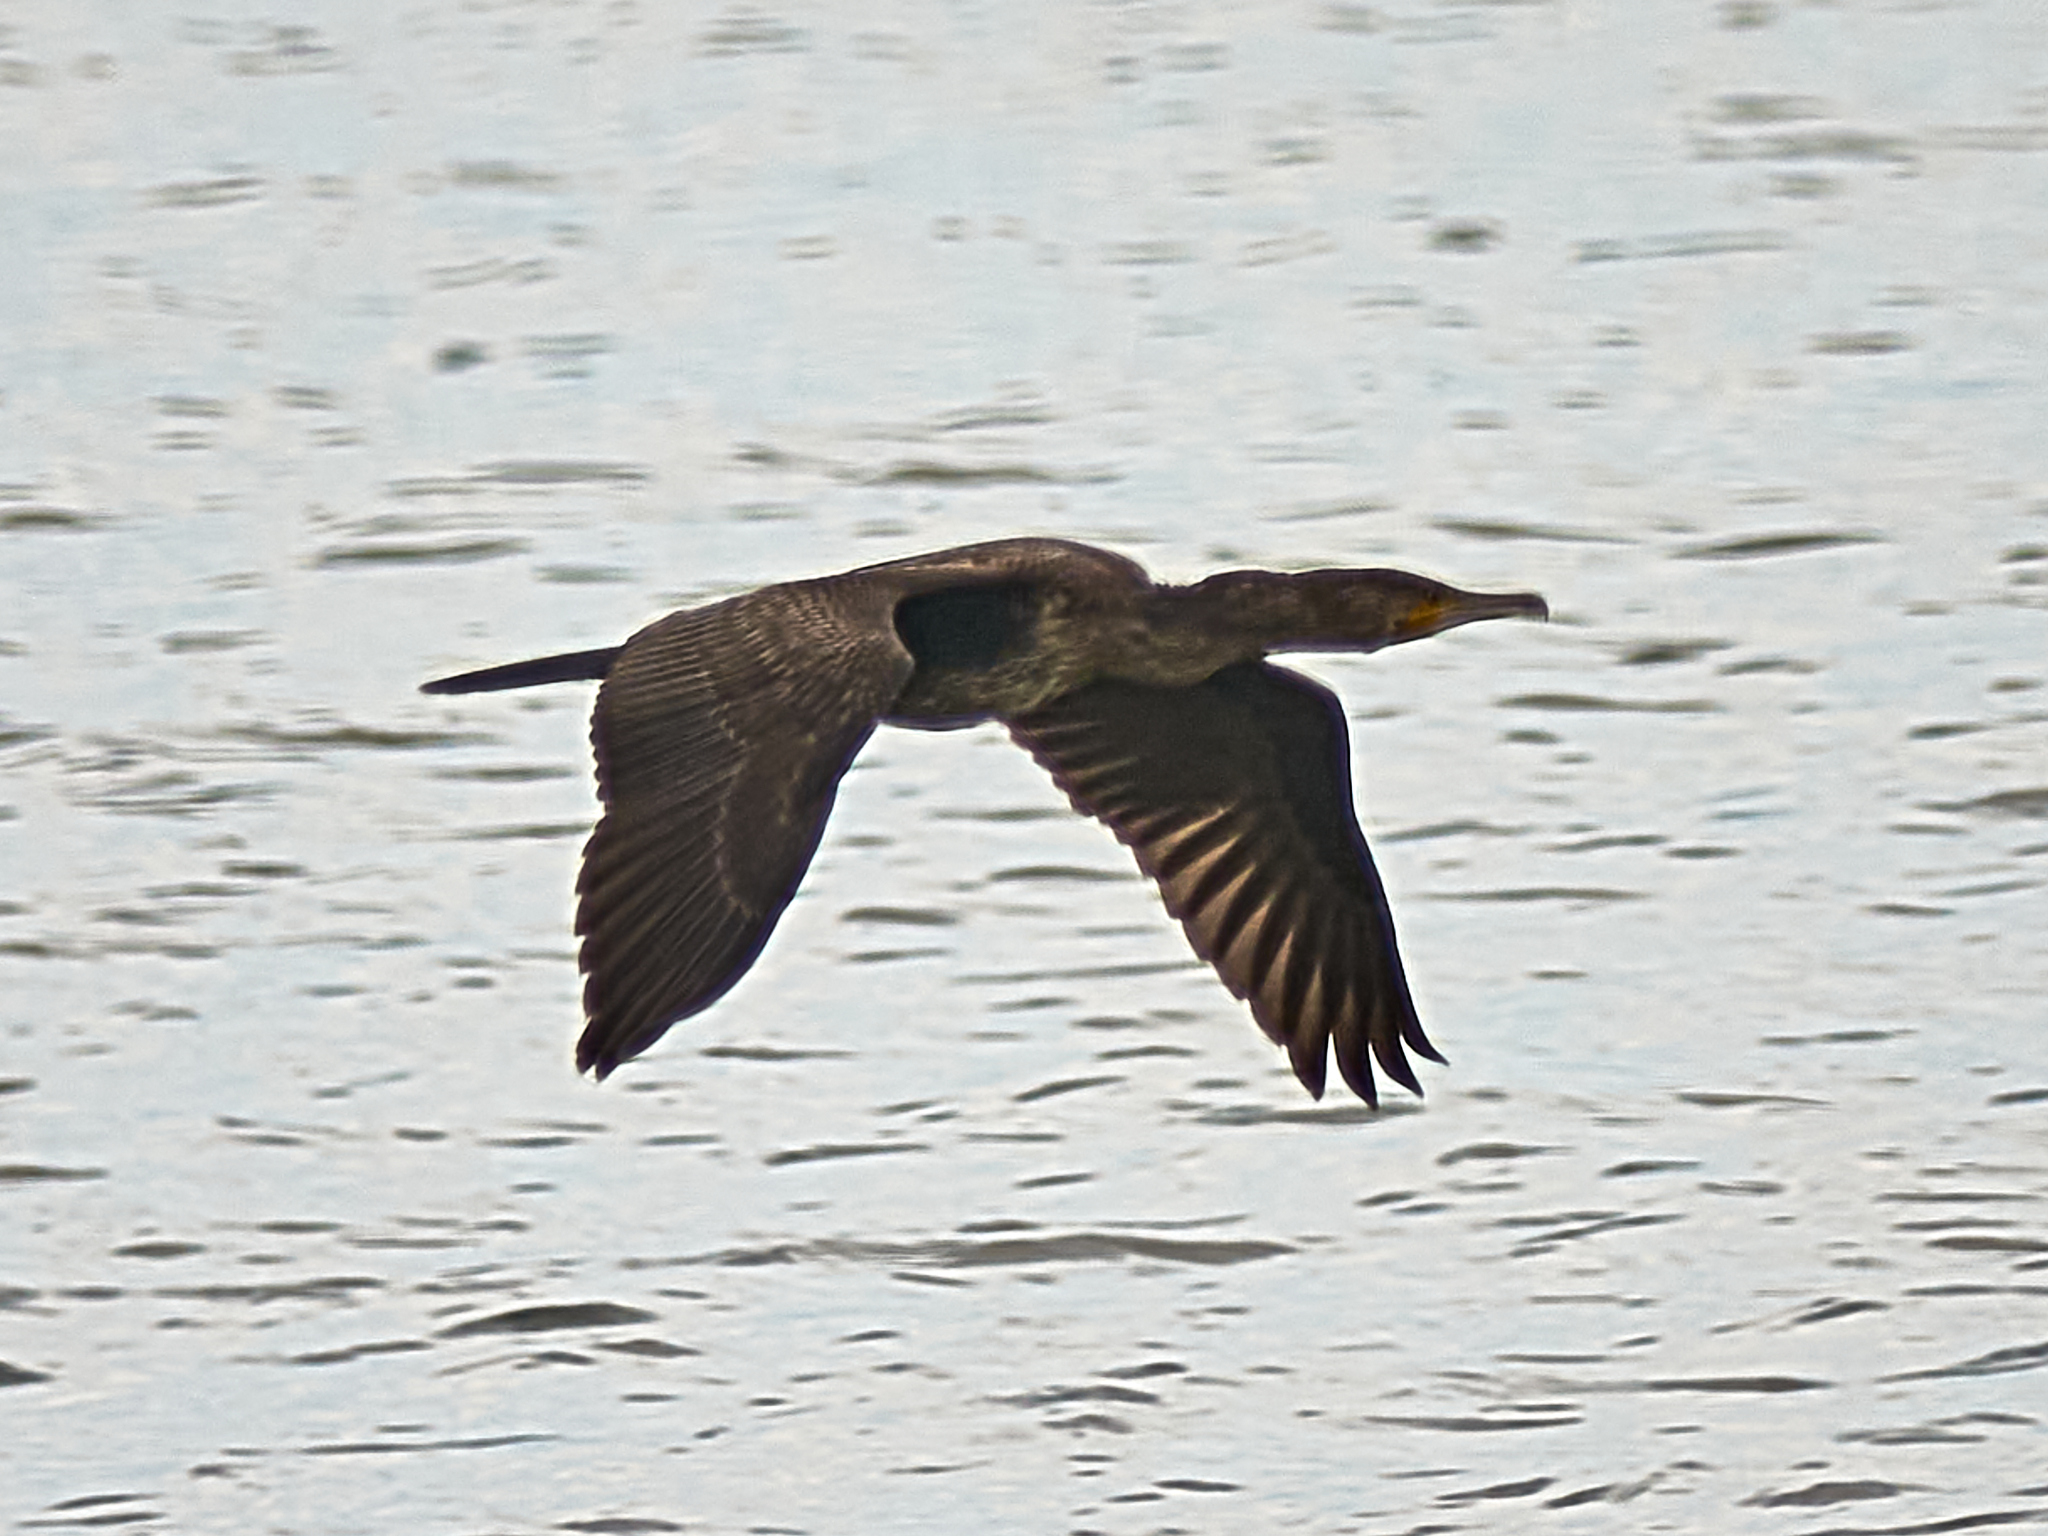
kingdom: Animalia
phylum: Chordata
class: Aves
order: Suliformes
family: Phalacrocoracidae
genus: Phalacrocorax
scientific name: Phalacrocorax carbo
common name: Great cormorant
